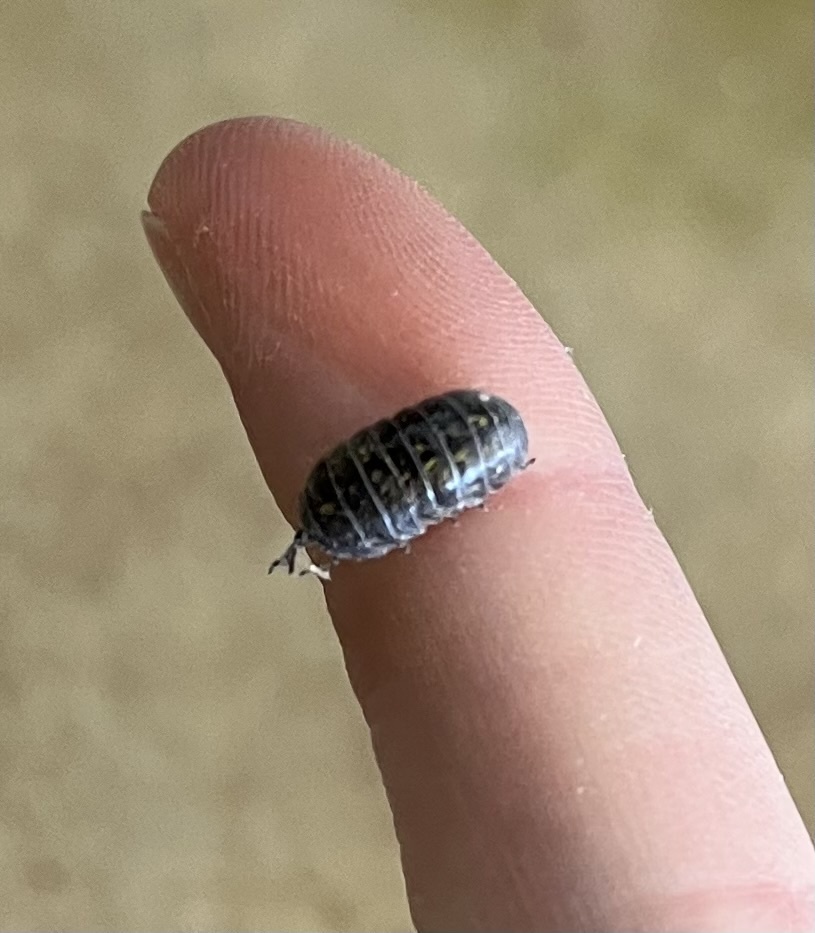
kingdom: Animalia
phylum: Arthropoda
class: Malacostraca
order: Isopoda
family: Armadillidiidae
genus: Armadillidium
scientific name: Armadillidium vulgare
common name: Common pill woodlouse
